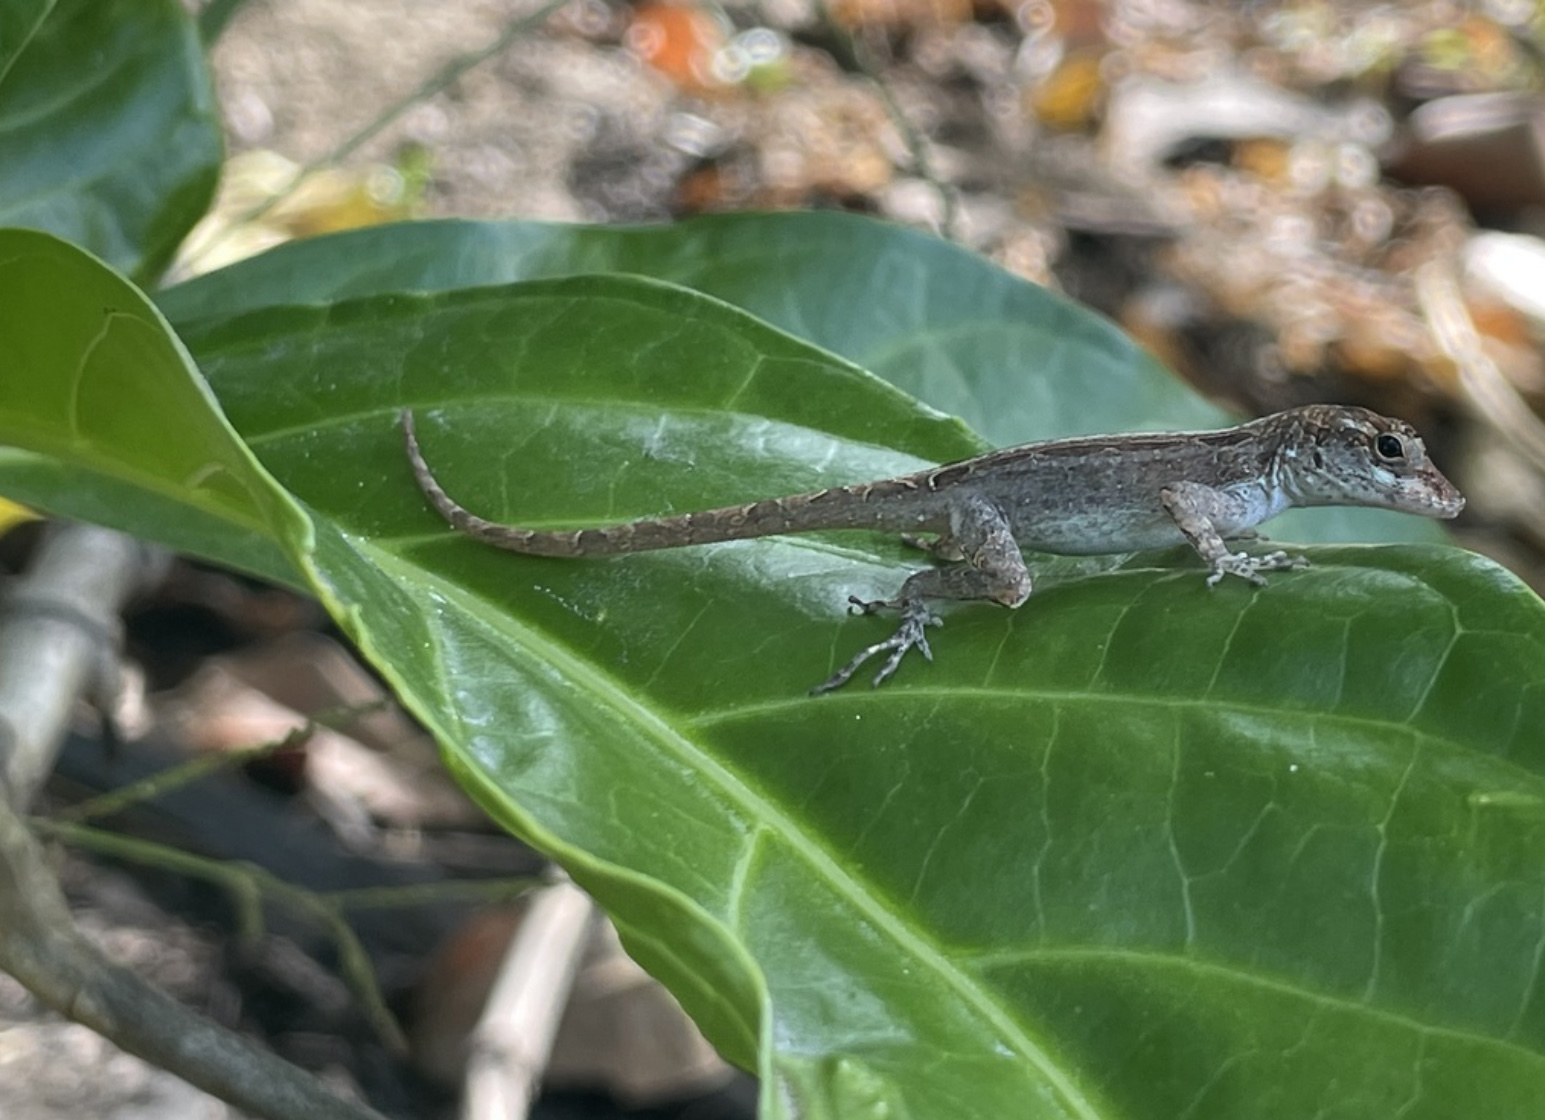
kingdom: Animalia
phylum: Chordata
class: Squamata
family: Dactyloidae
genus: Anolis
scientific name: Anolis cristatellus
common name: Crested anole
